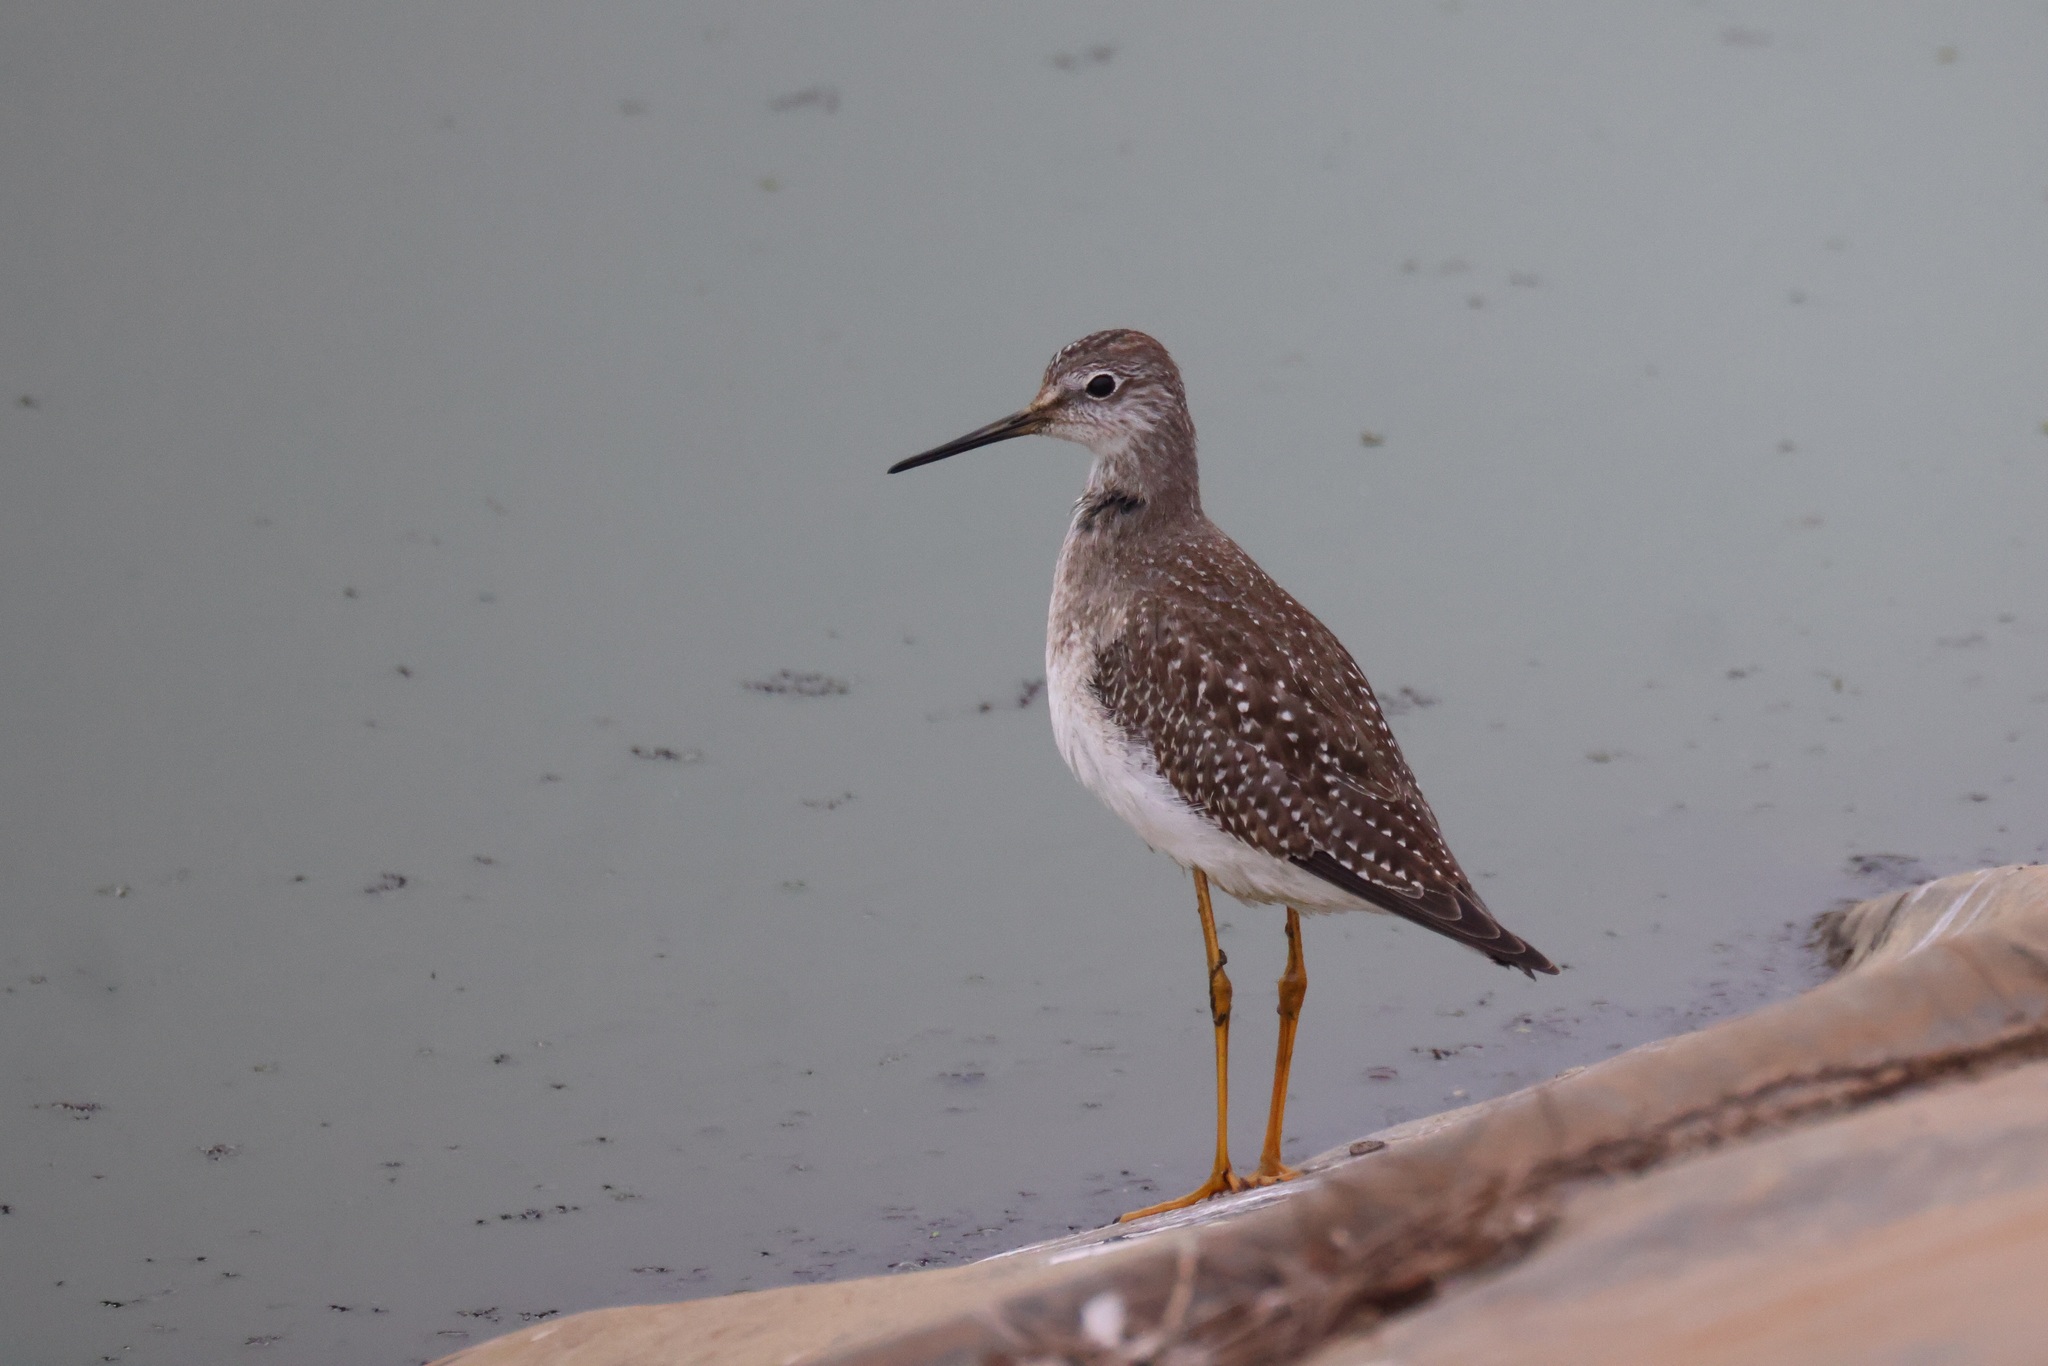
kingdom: Animalia
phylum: Chordata
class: Aves
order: Charadriiformes
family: Scolopacidae
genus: Tringa
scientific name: Tringa flavipes
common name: Lesser yellowlegs
